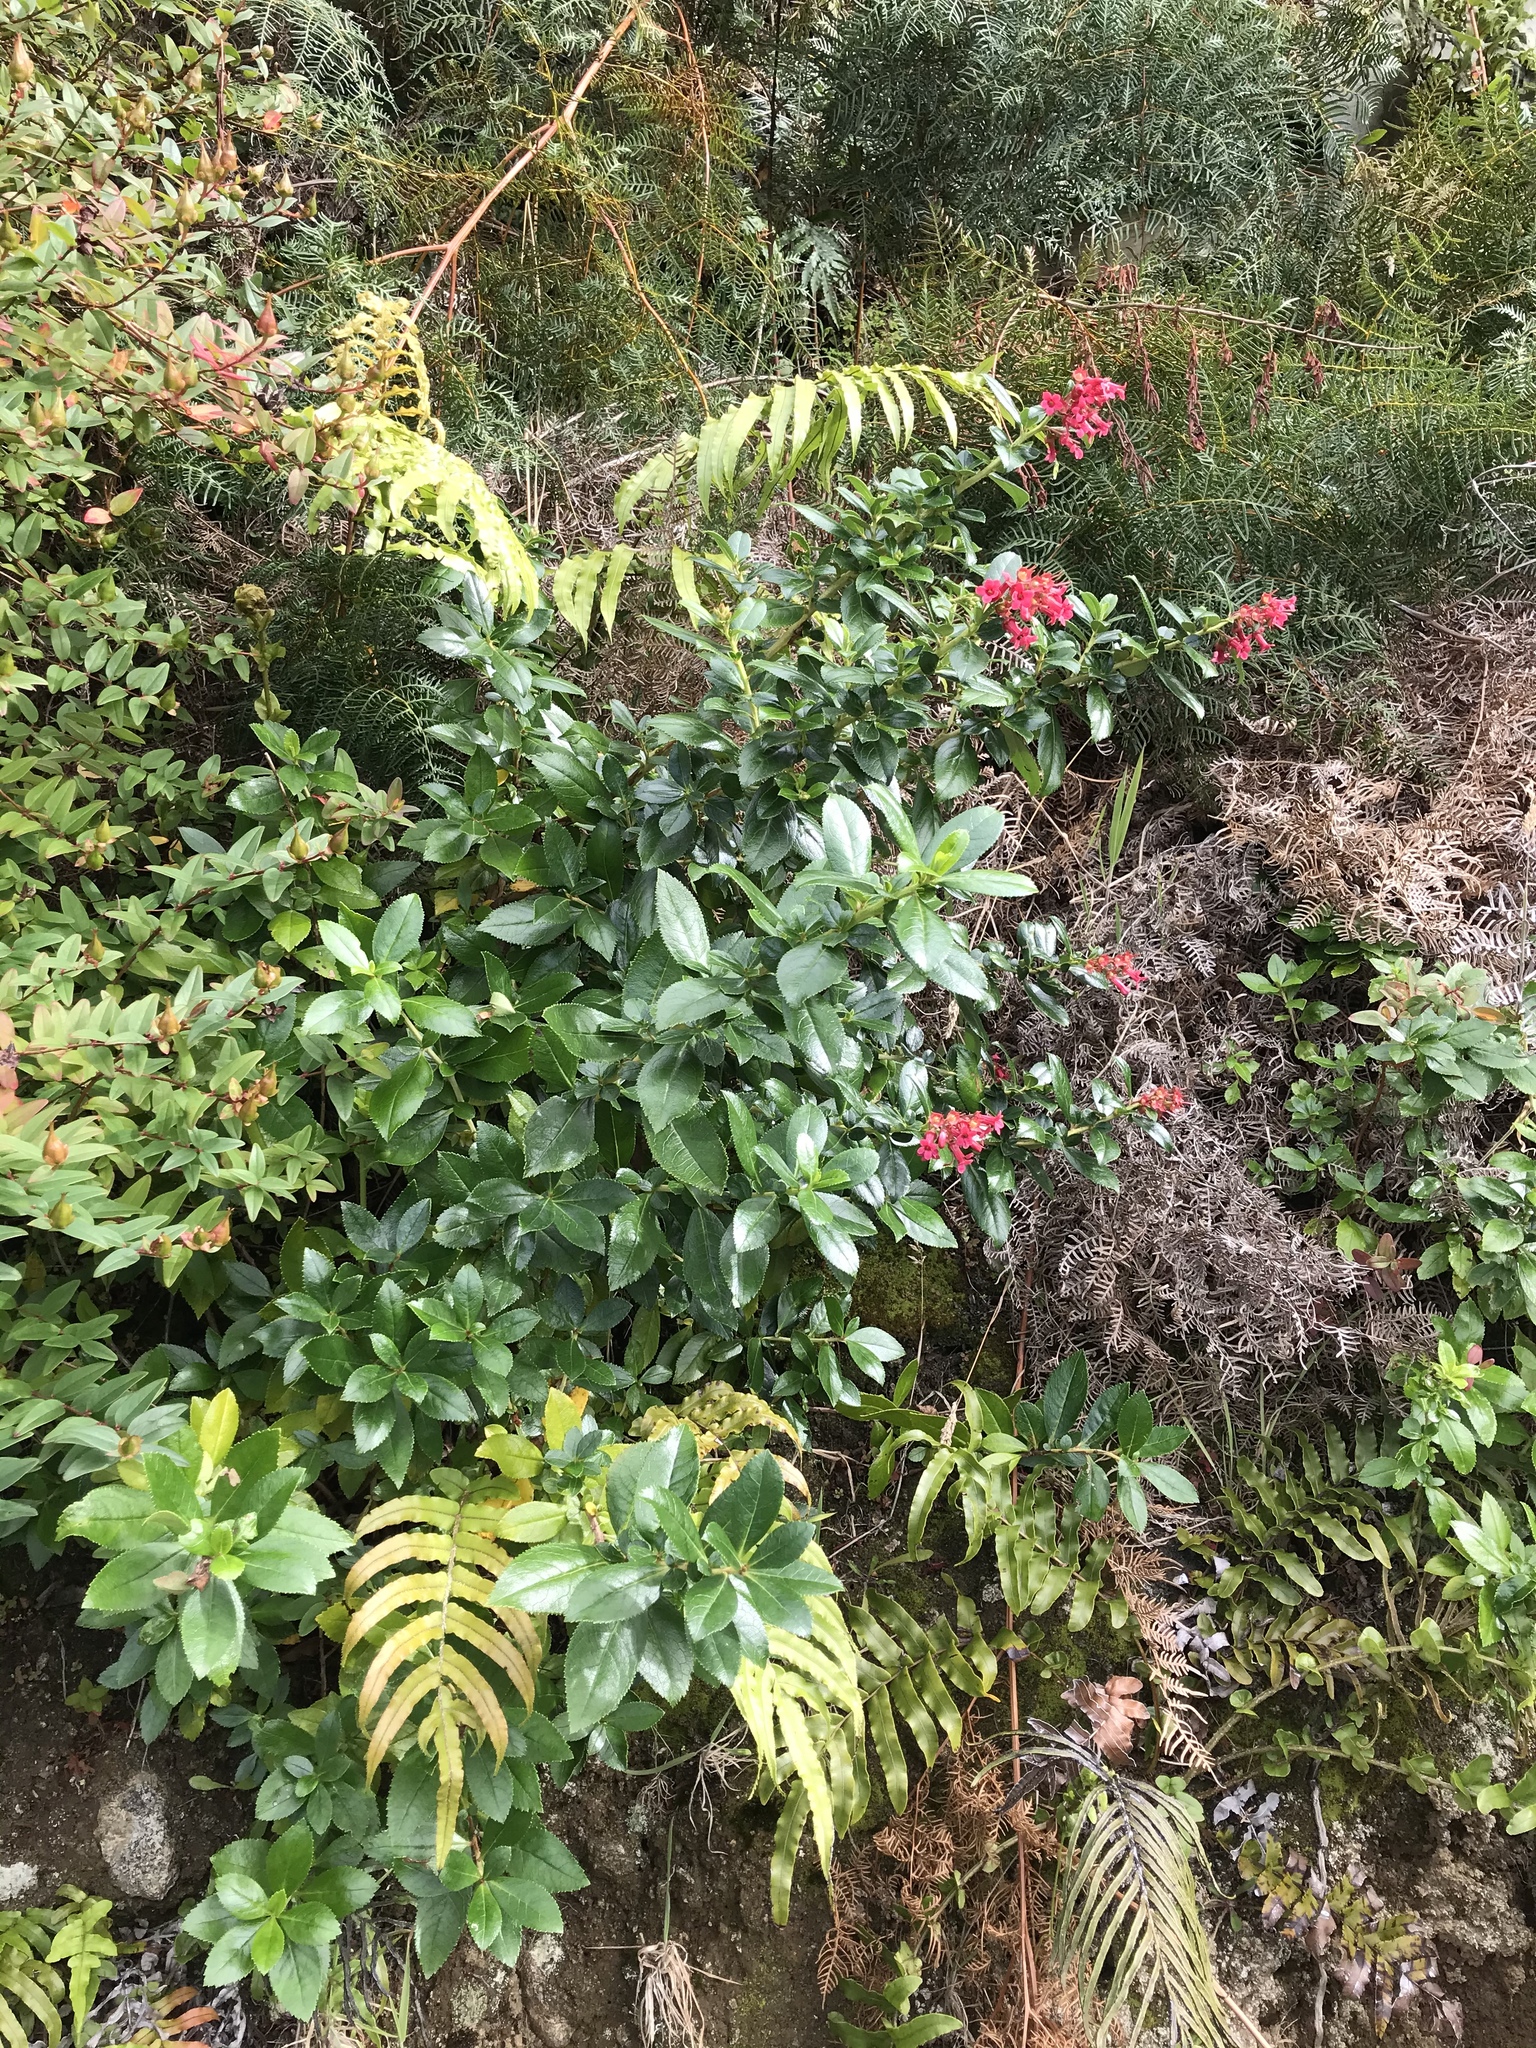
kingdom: Plantae
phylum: Tracheophyta
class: Magnoliopsida
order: Escalloniales
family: Escalloniaceae
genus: Escallonia
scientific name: Escallonia rubra
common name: Redclaws
